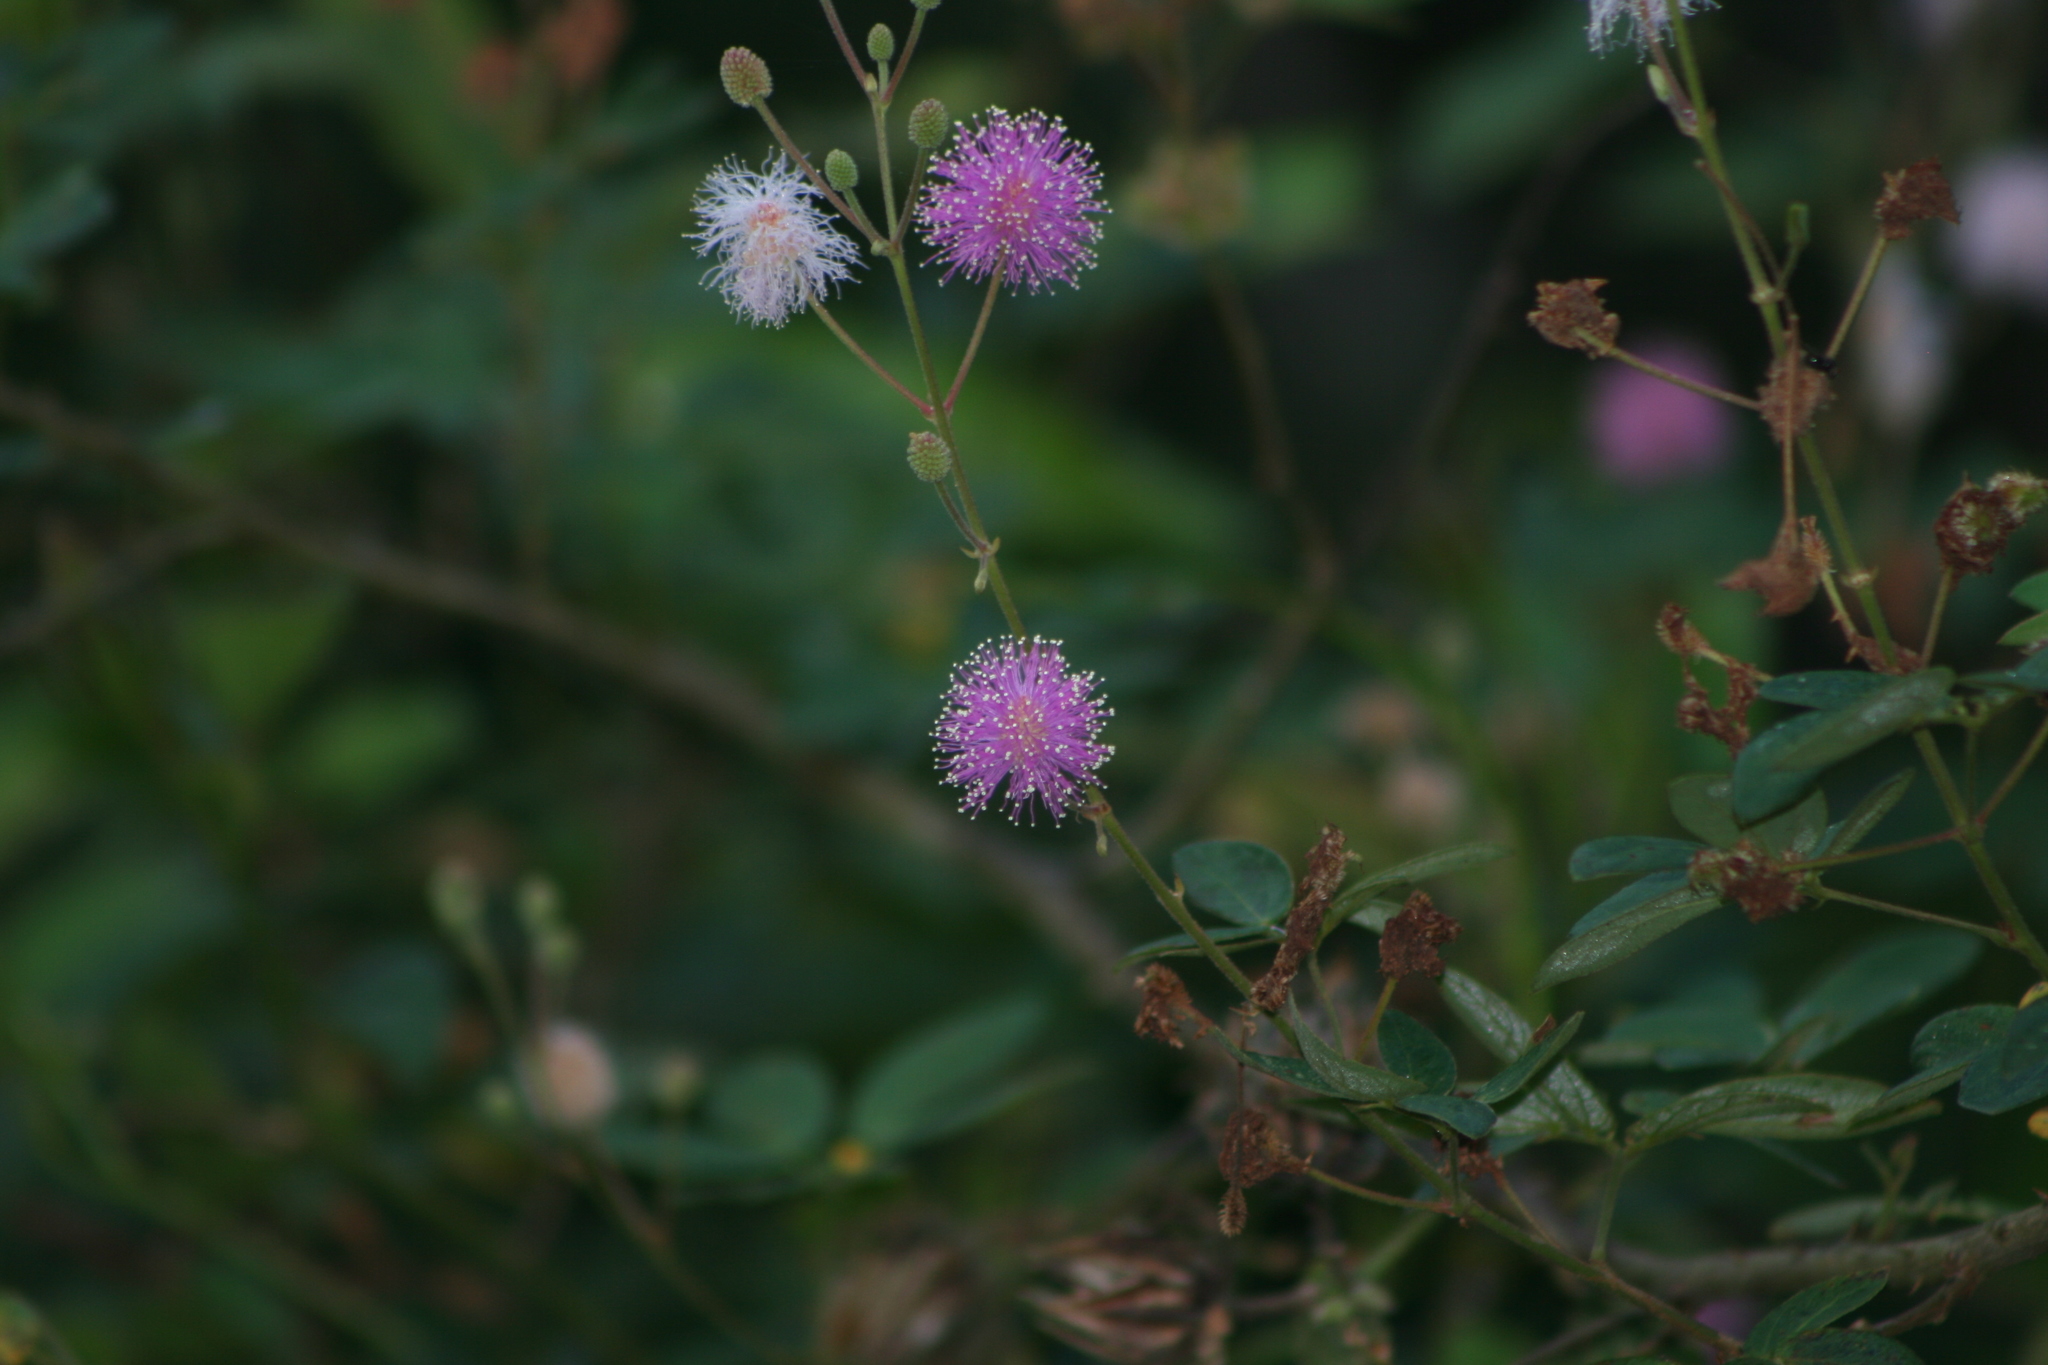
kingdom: Plantae
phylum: Tracheophyta
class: Magnoliopsida
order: Fabales
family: Fabaceae
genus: Mimosa
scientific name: Mimosa albida
